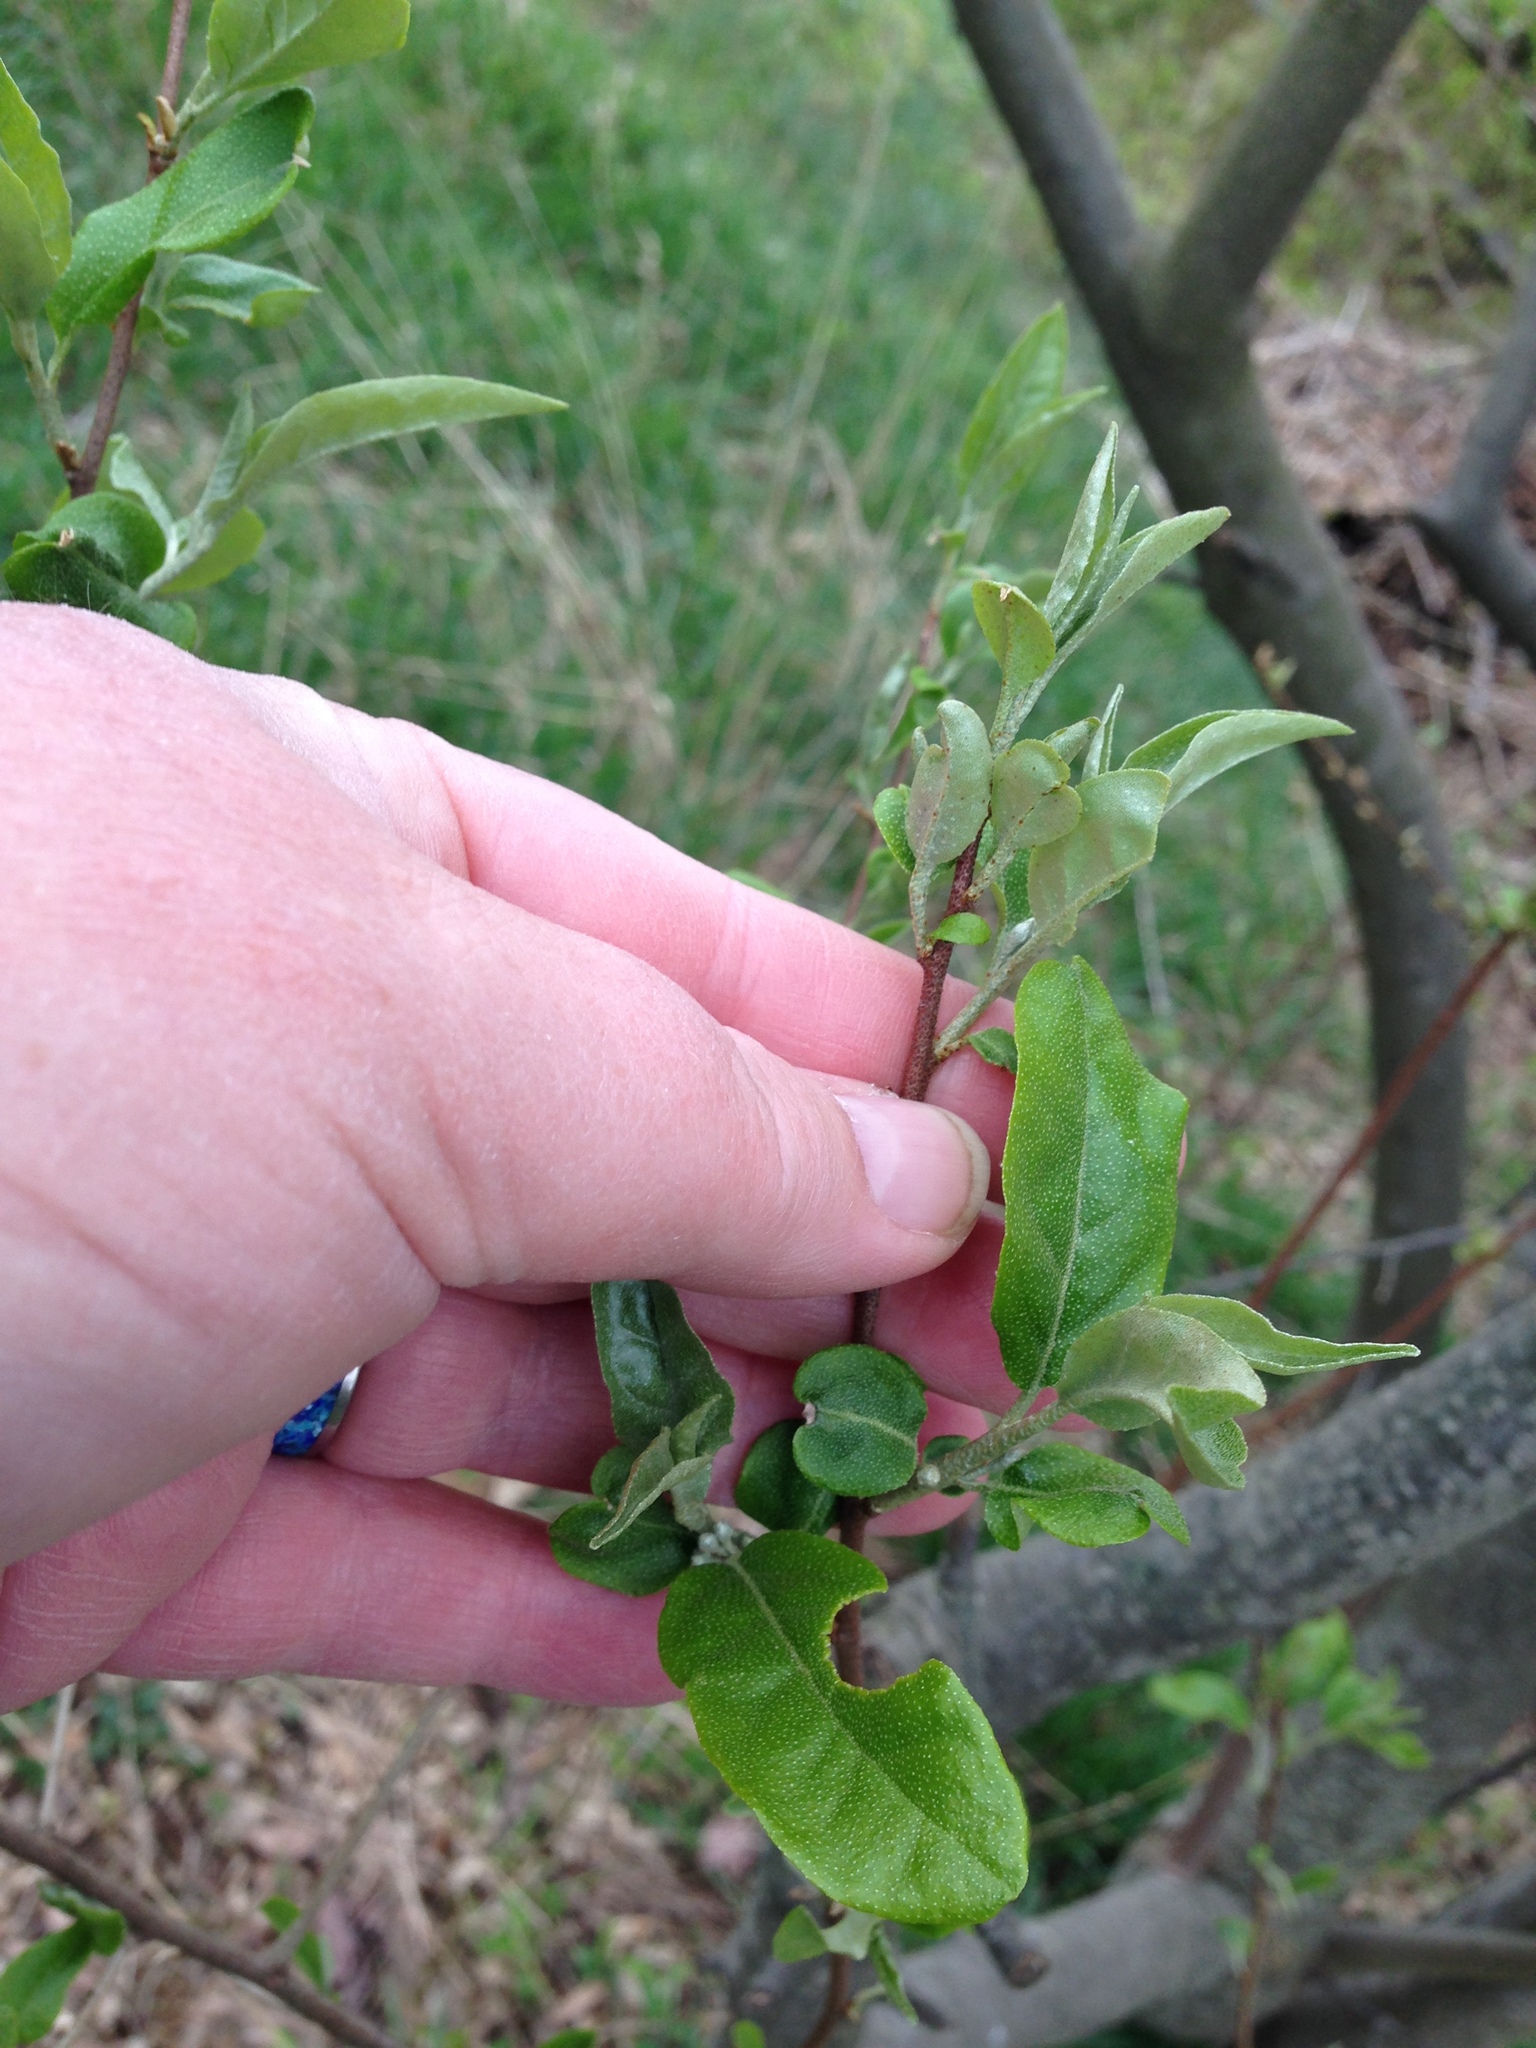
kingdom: Plantae
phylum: Tracheophyta
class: Magnoliopsida
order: Rosales
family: Elaeagnaceae
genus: Elaeagnus
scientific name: Elaeagnus umbellata
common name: Autumn olive
